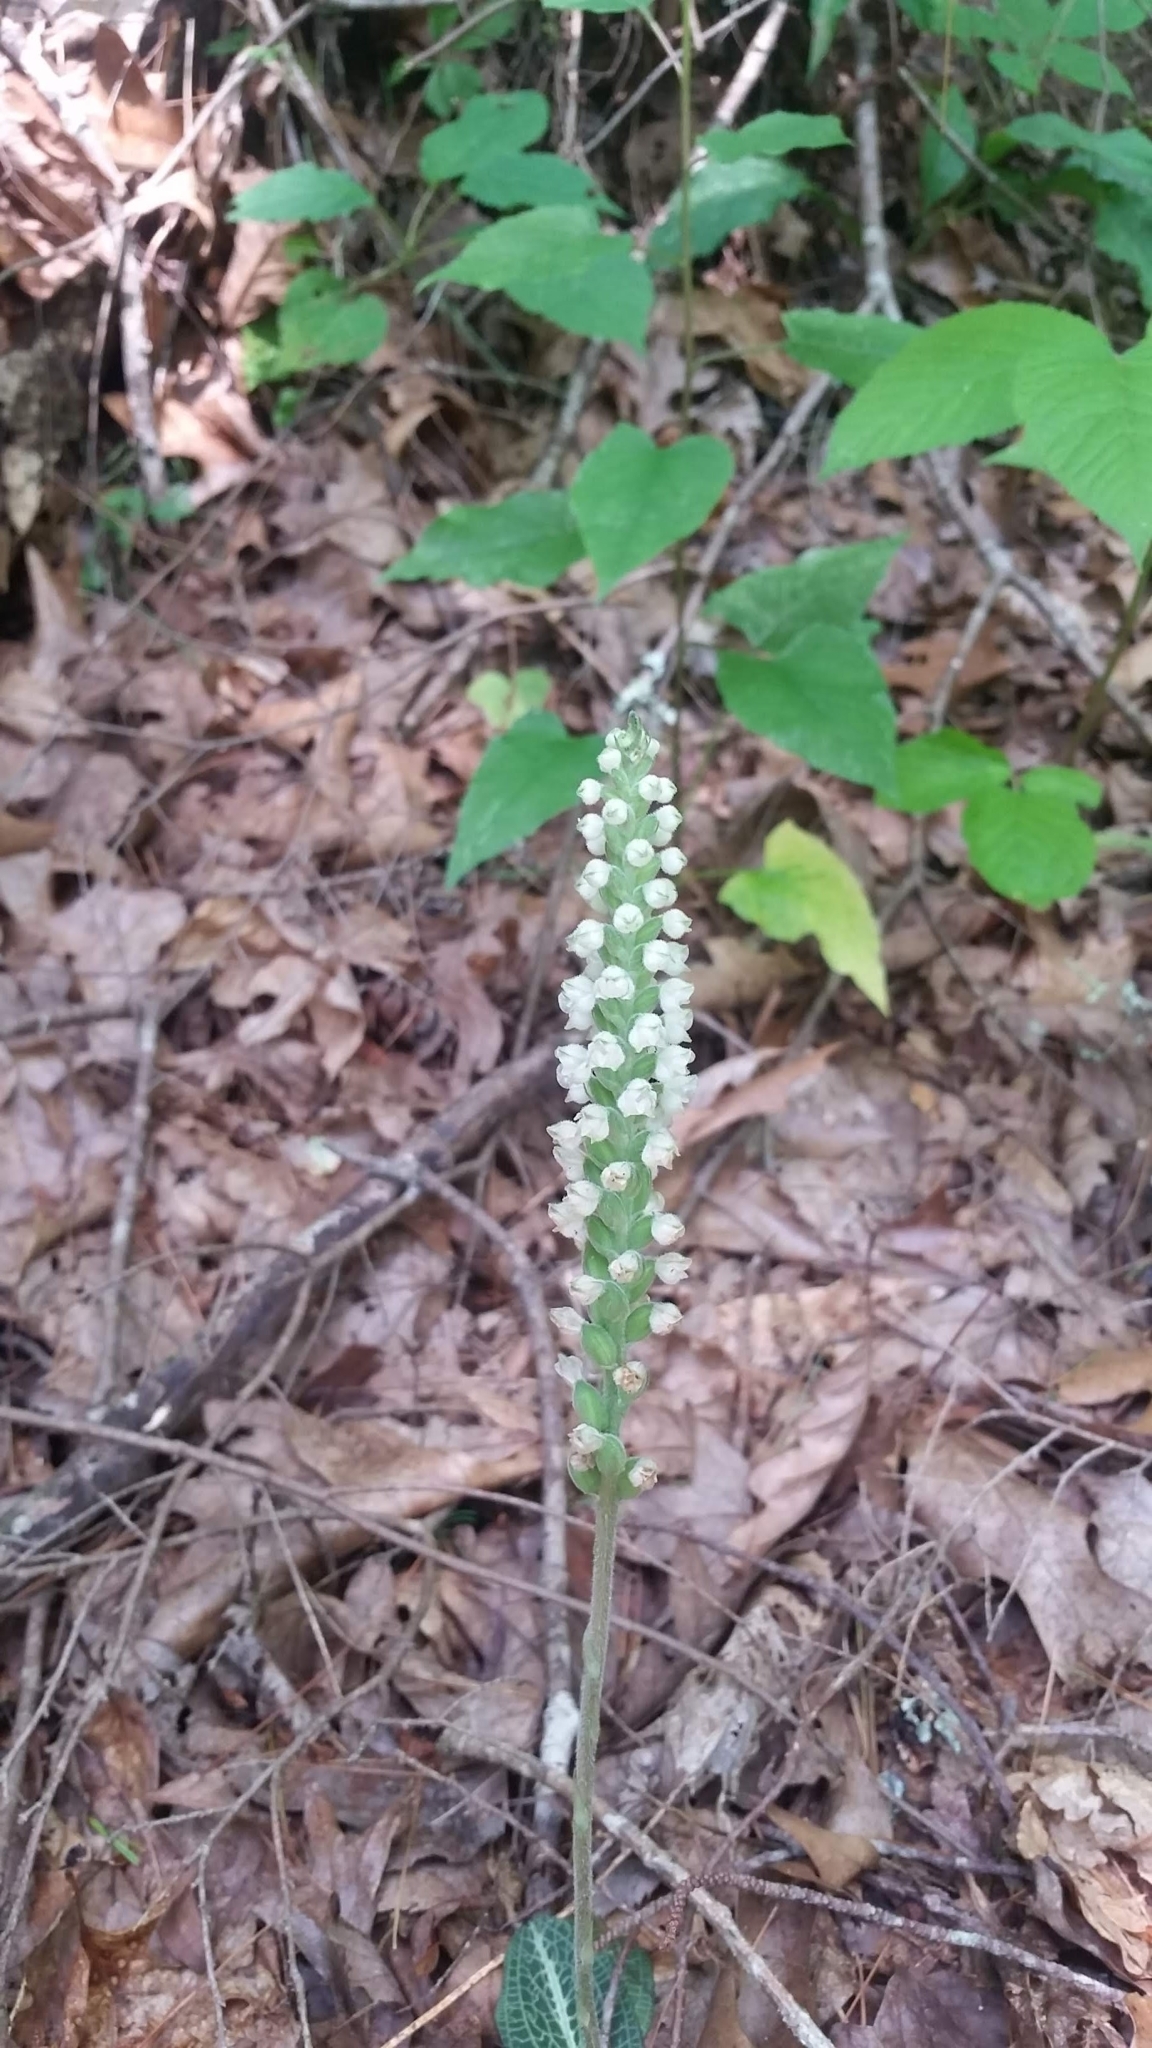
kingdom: Plantae
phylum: Tracheophyta
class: Liliopsida
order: Asparagales
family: Orchidaceae
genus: Goodyera
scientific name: Goodyera pubescens
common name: Downy rattlesnake-plantain
